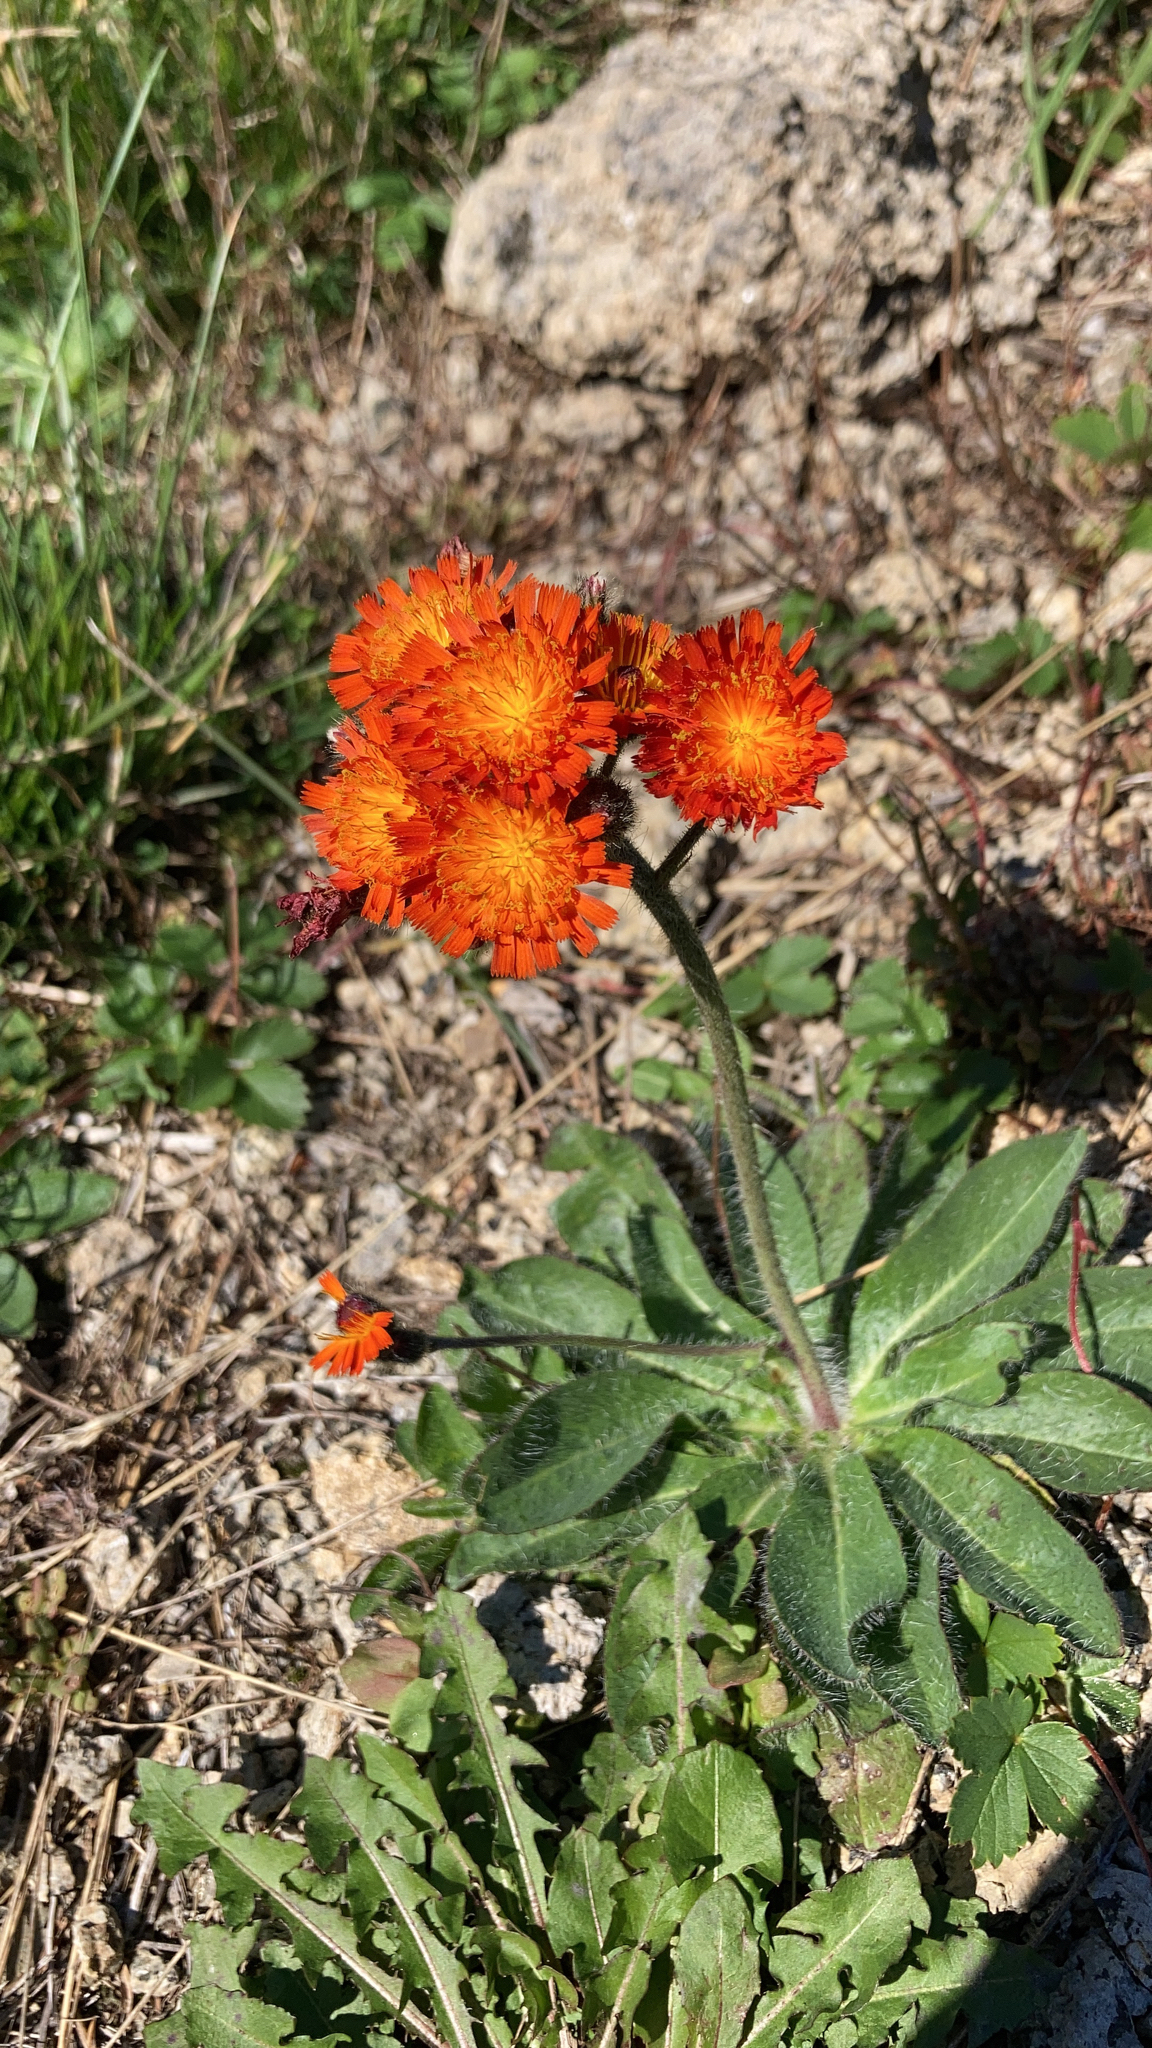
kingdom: Plantae
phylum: Tracheophyta
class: Magnoliopsida
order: Asterales
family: Asteraceae
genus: Pilosella
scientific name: Pilosella aurantiaca
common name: Fox-and-cubs
